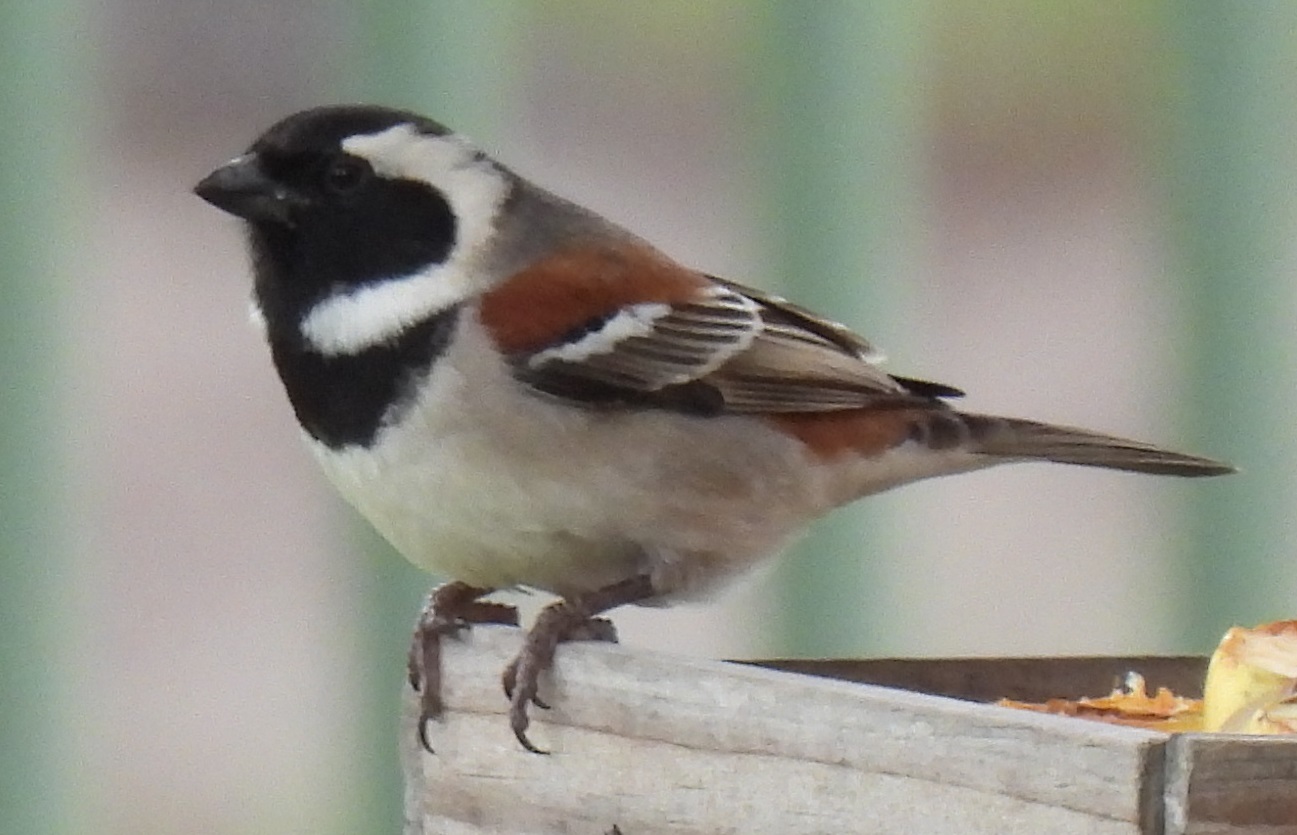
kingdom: Animalia
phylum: Chordata
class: Aves
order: Passeriformes
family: Passeridae
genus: Passer
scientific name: Passer melanurus
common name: Cape sparrow
